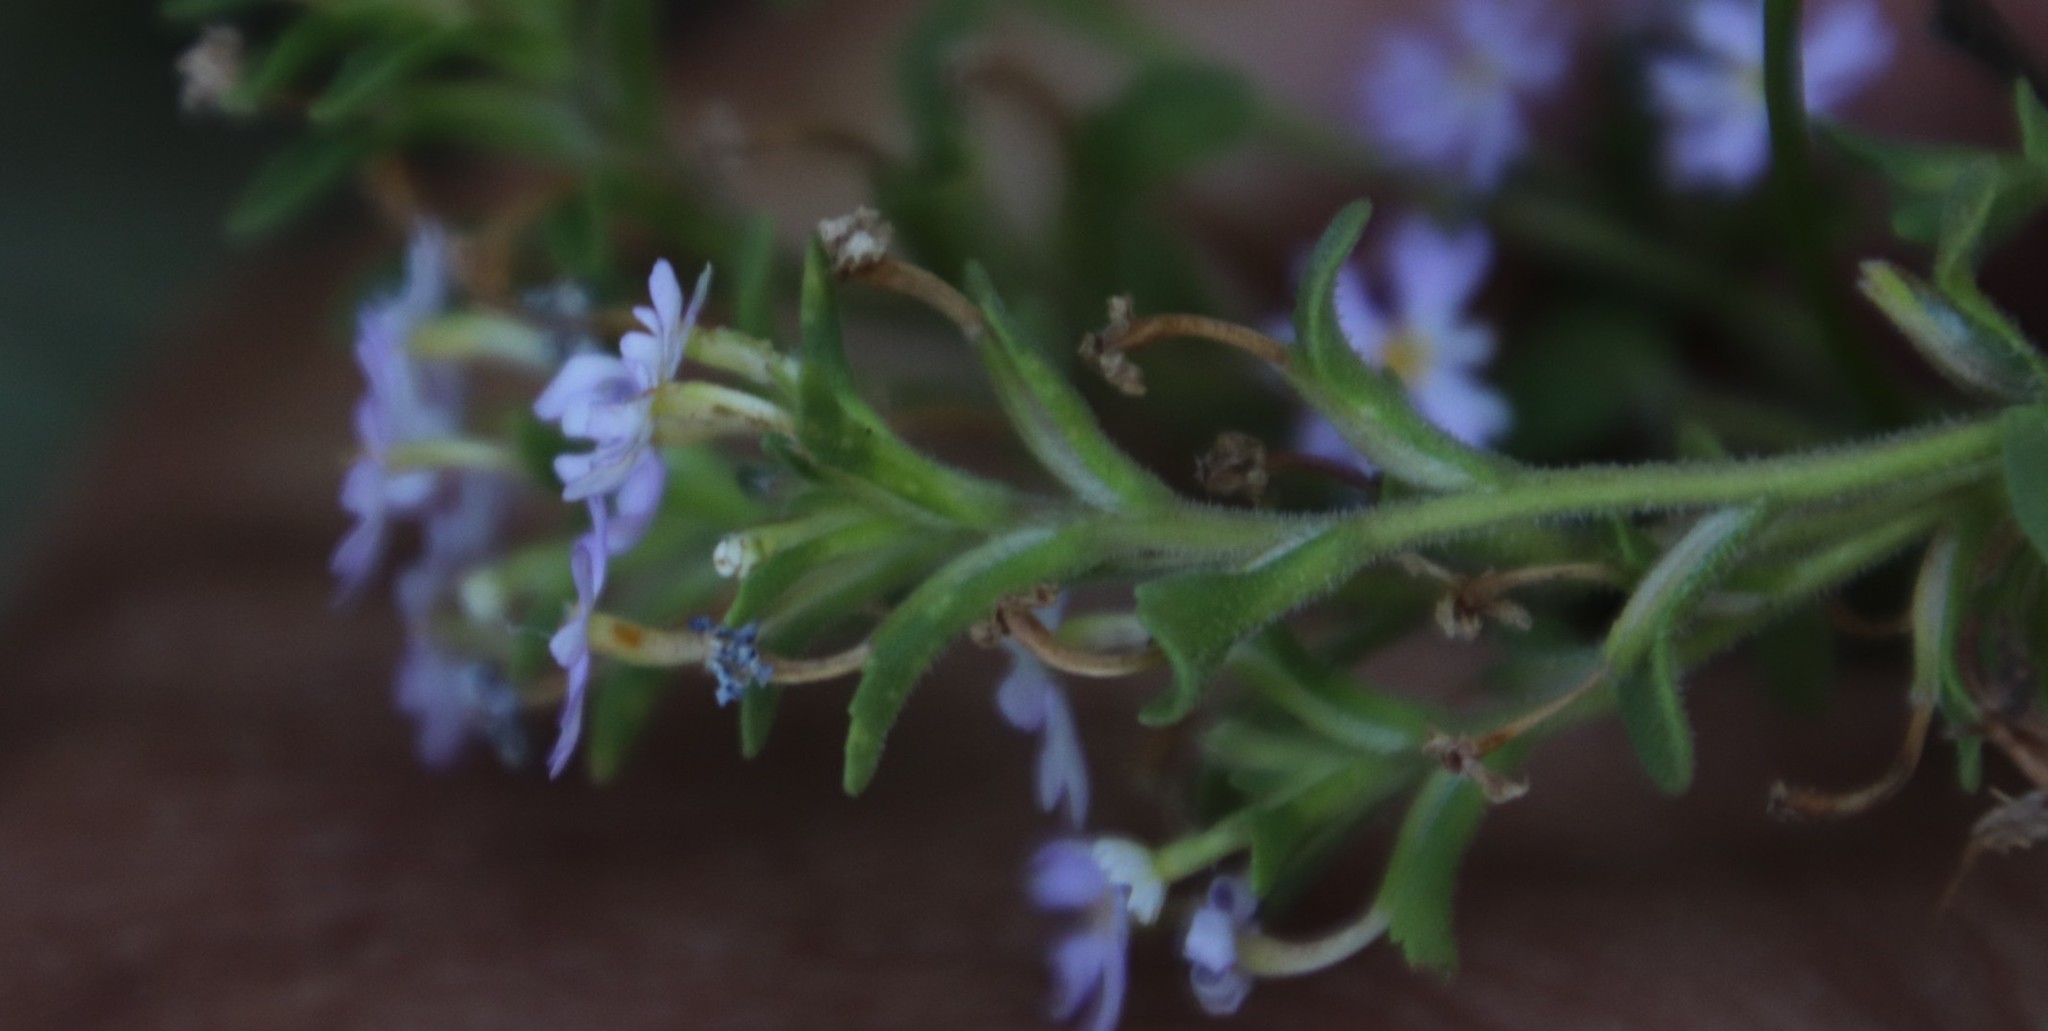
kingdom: Plantae
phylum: Tracheophyta
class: Magnoliopsida
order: Lamiales
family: Scrophulariaceae
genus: Zaluzianskya
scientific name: Zaluzianskya villosa
